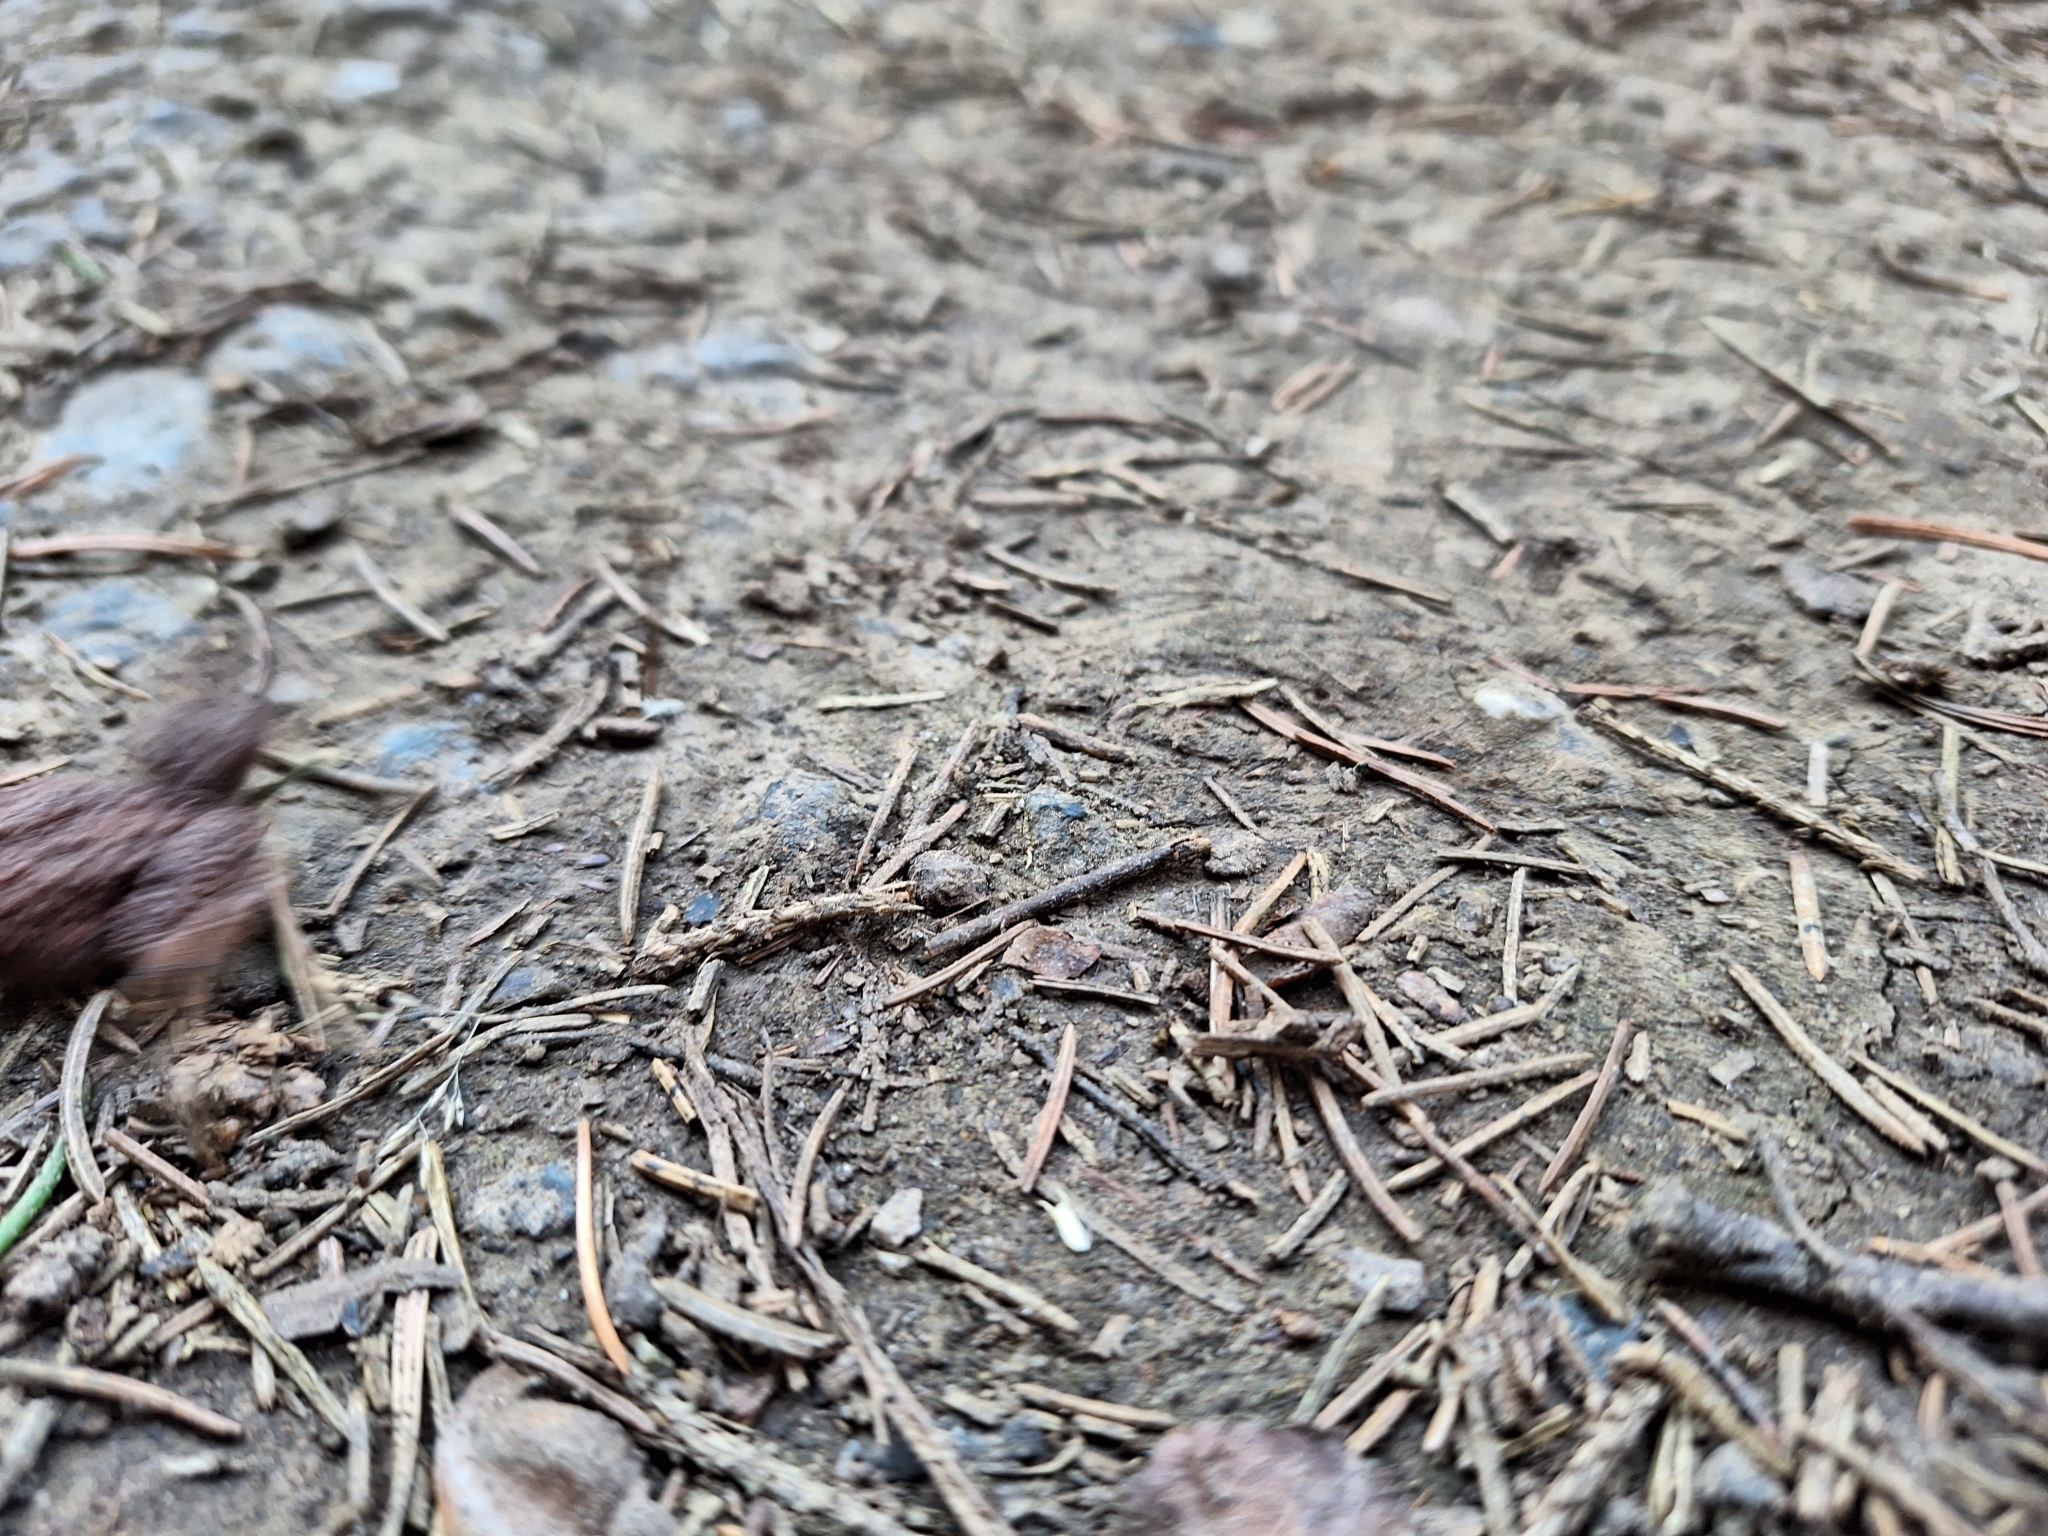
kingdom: Animalia
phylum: Chordata
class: Amphibia
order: Anura
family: Bufonidae
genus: Bufo
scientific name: Bufo bufo
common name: Common toad
